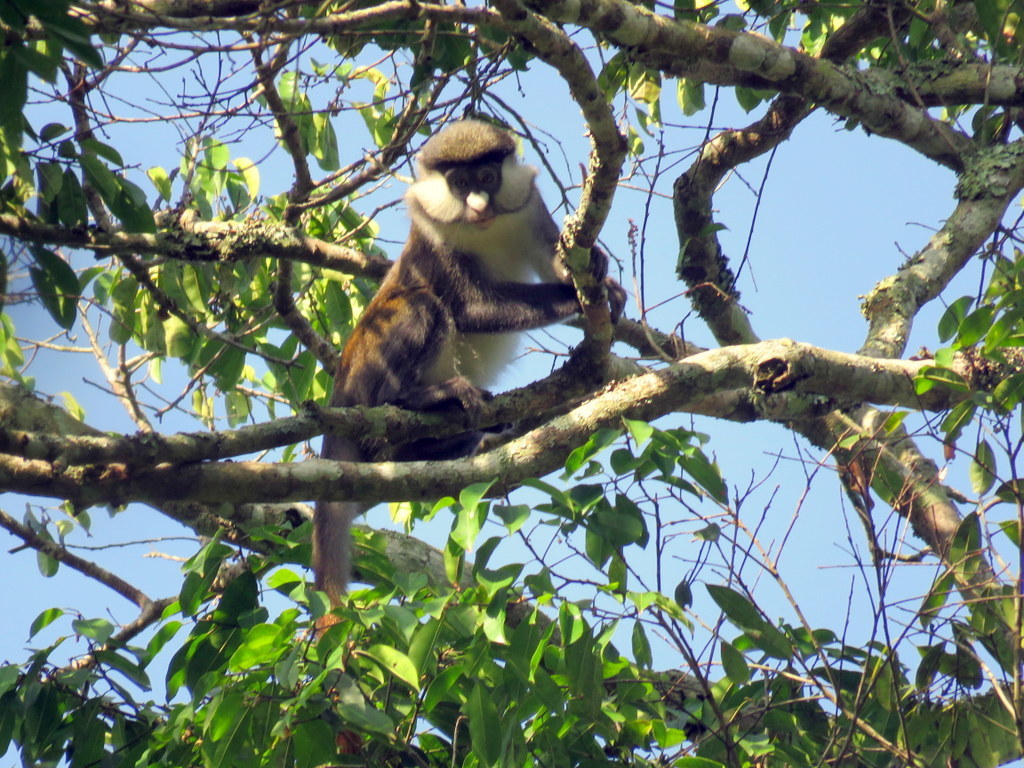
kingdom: Animalia
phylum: Chordata
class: Mammalia
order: Primates
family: Cercopithecidae
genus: Cercopithecus
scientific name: Cercopithecus ascanius
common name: Red-tailed monkey
